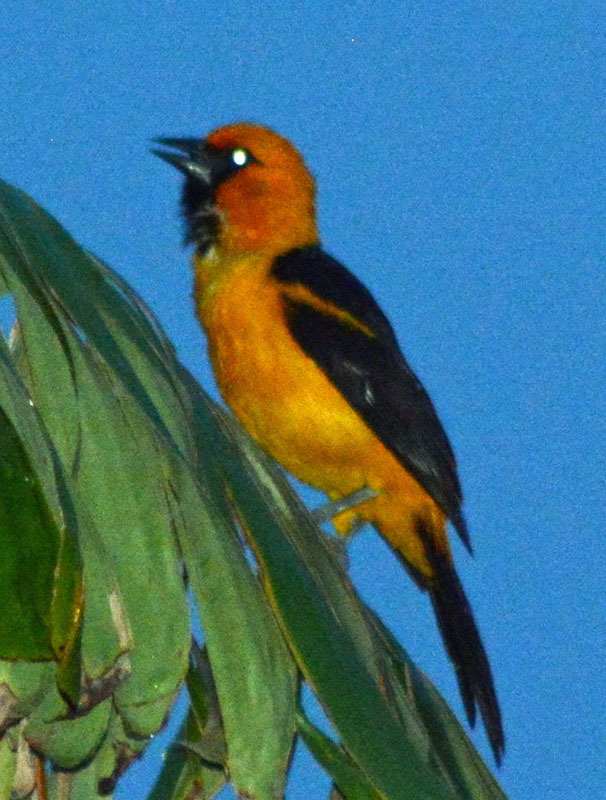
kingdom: Animalia
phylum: Chordata
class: Aves
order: Passeriformes
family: Icteridae
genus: Icterus
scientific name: Icterus gularis
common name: Altamira oriole
